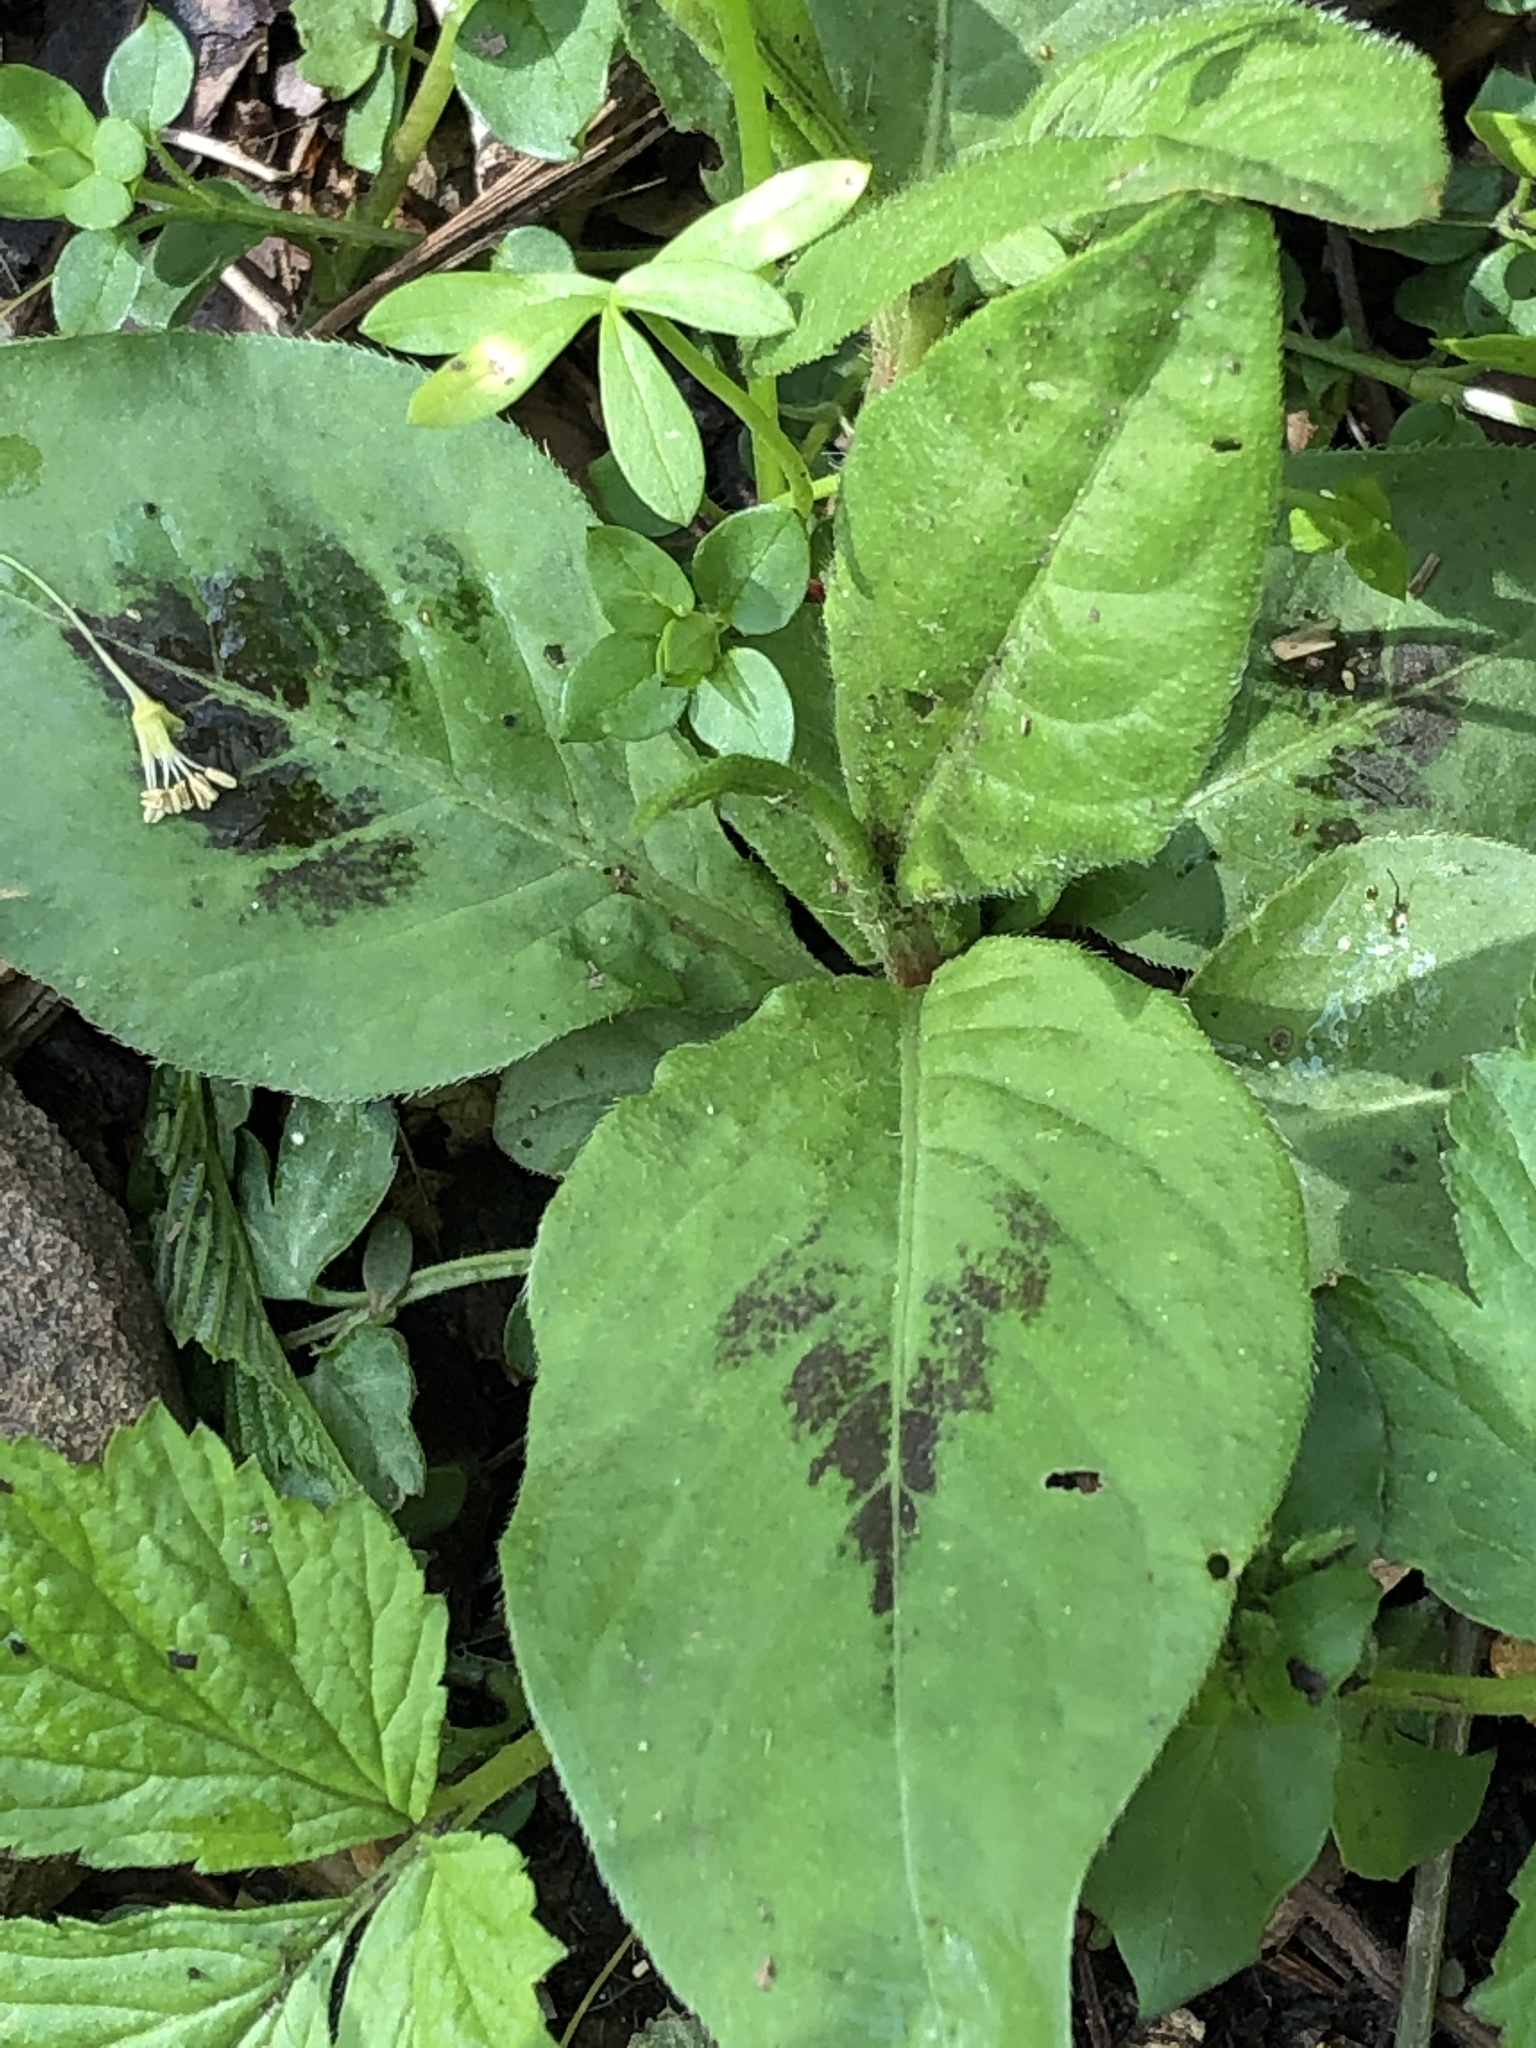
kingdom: Plantae
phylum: Tracheophyta
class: Magnoliopsida
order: Caryophyllales
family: Polygonaceae
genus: Persicaria
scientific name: Persicaria virginiana
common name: Jumpseed
